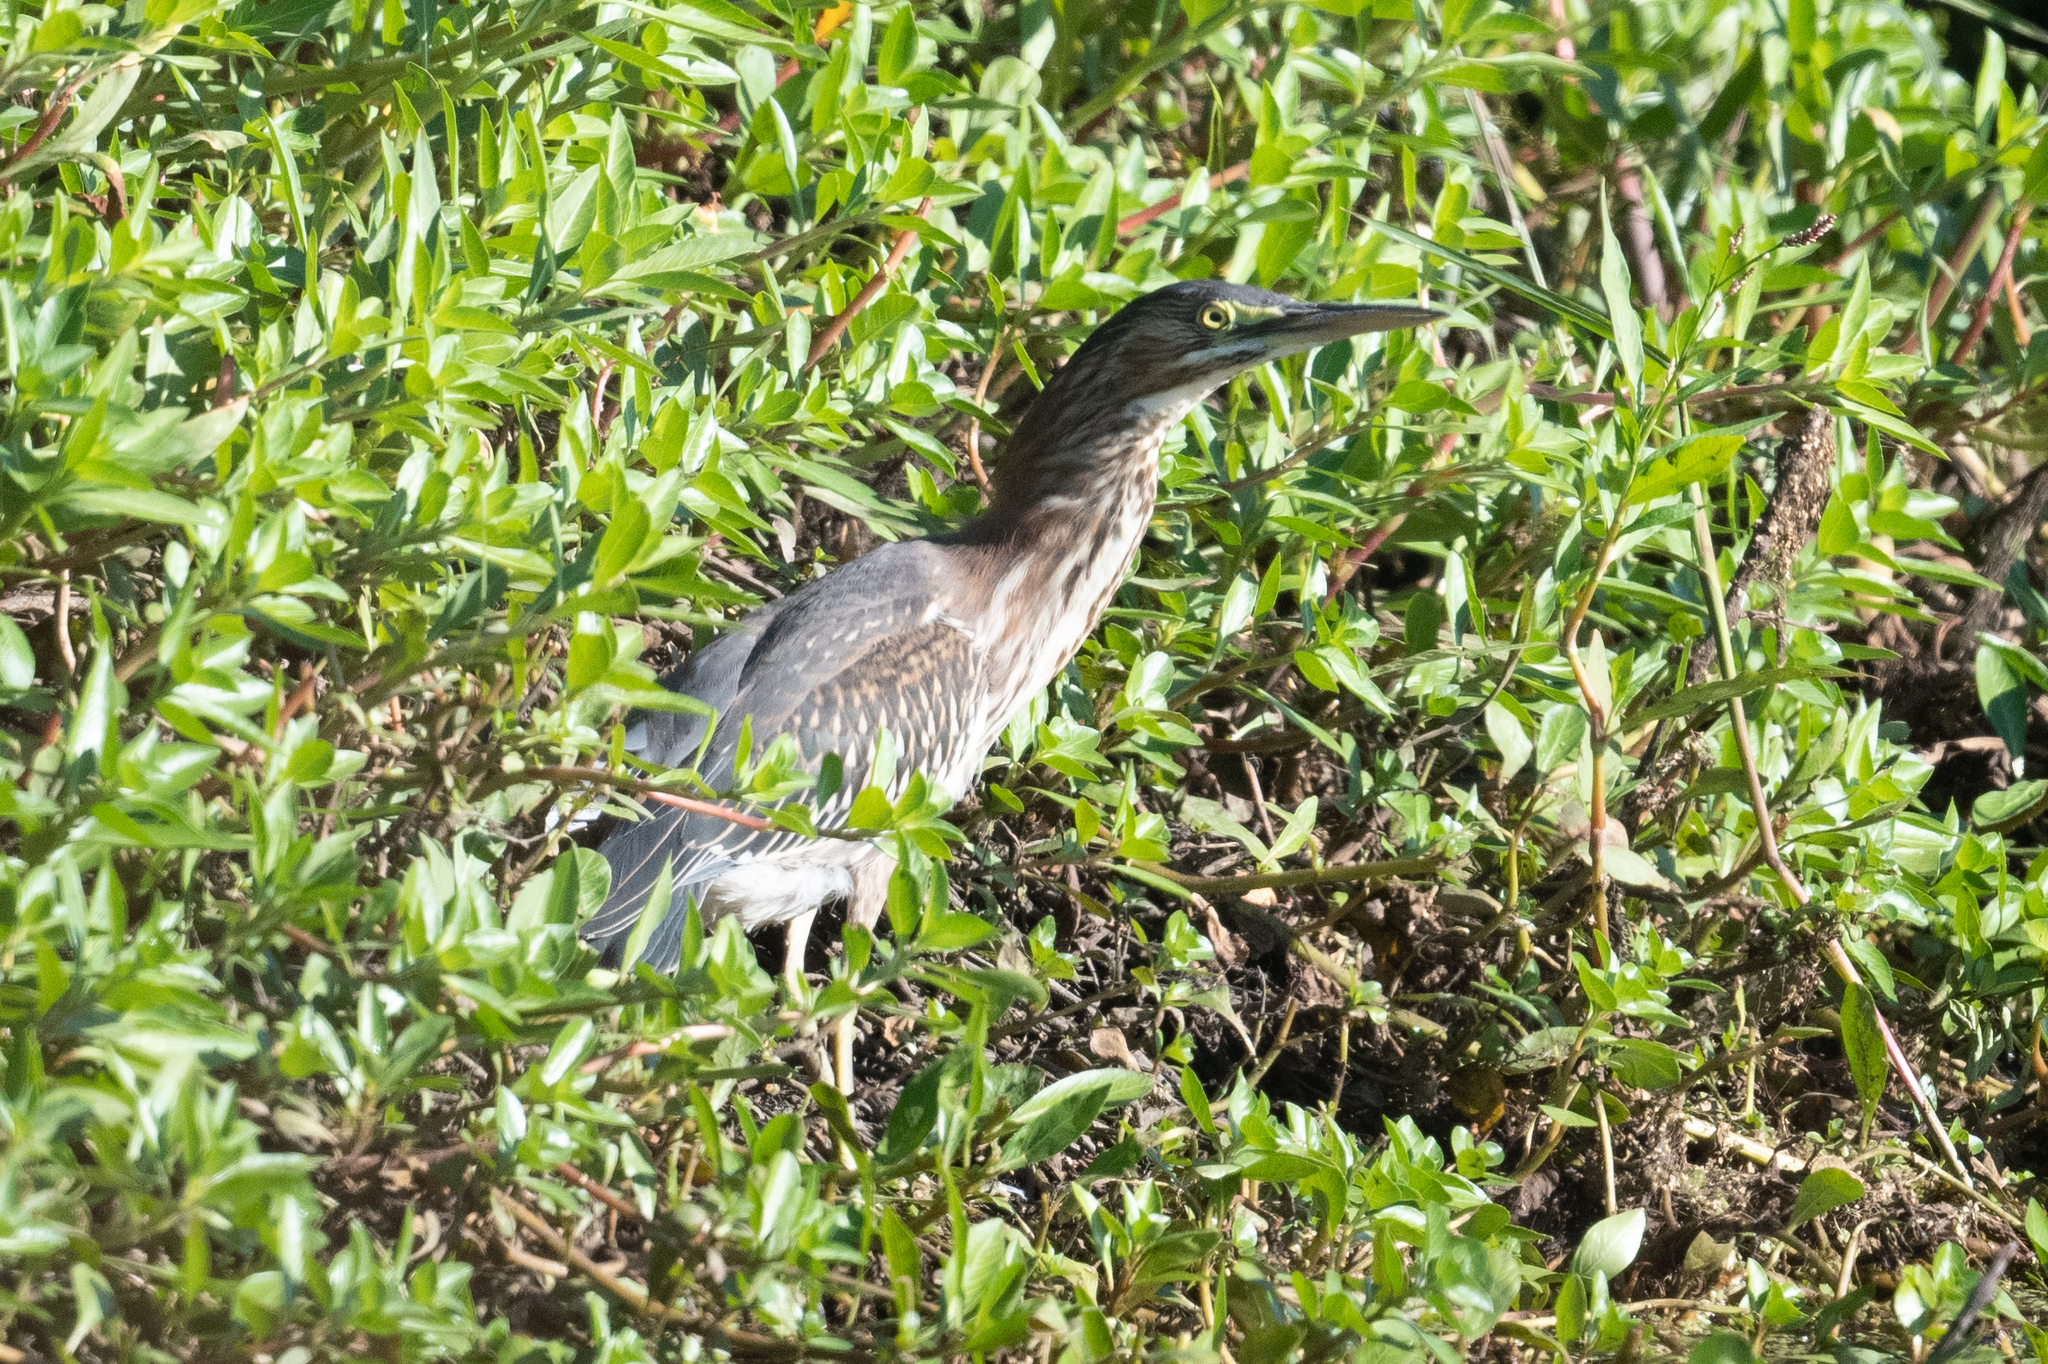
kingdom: Animalia
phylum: Chordata
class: Aves
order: Pelecaniformes
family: Ardeidae
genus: Butorides
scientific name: Butorides virescens
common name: Green heron
